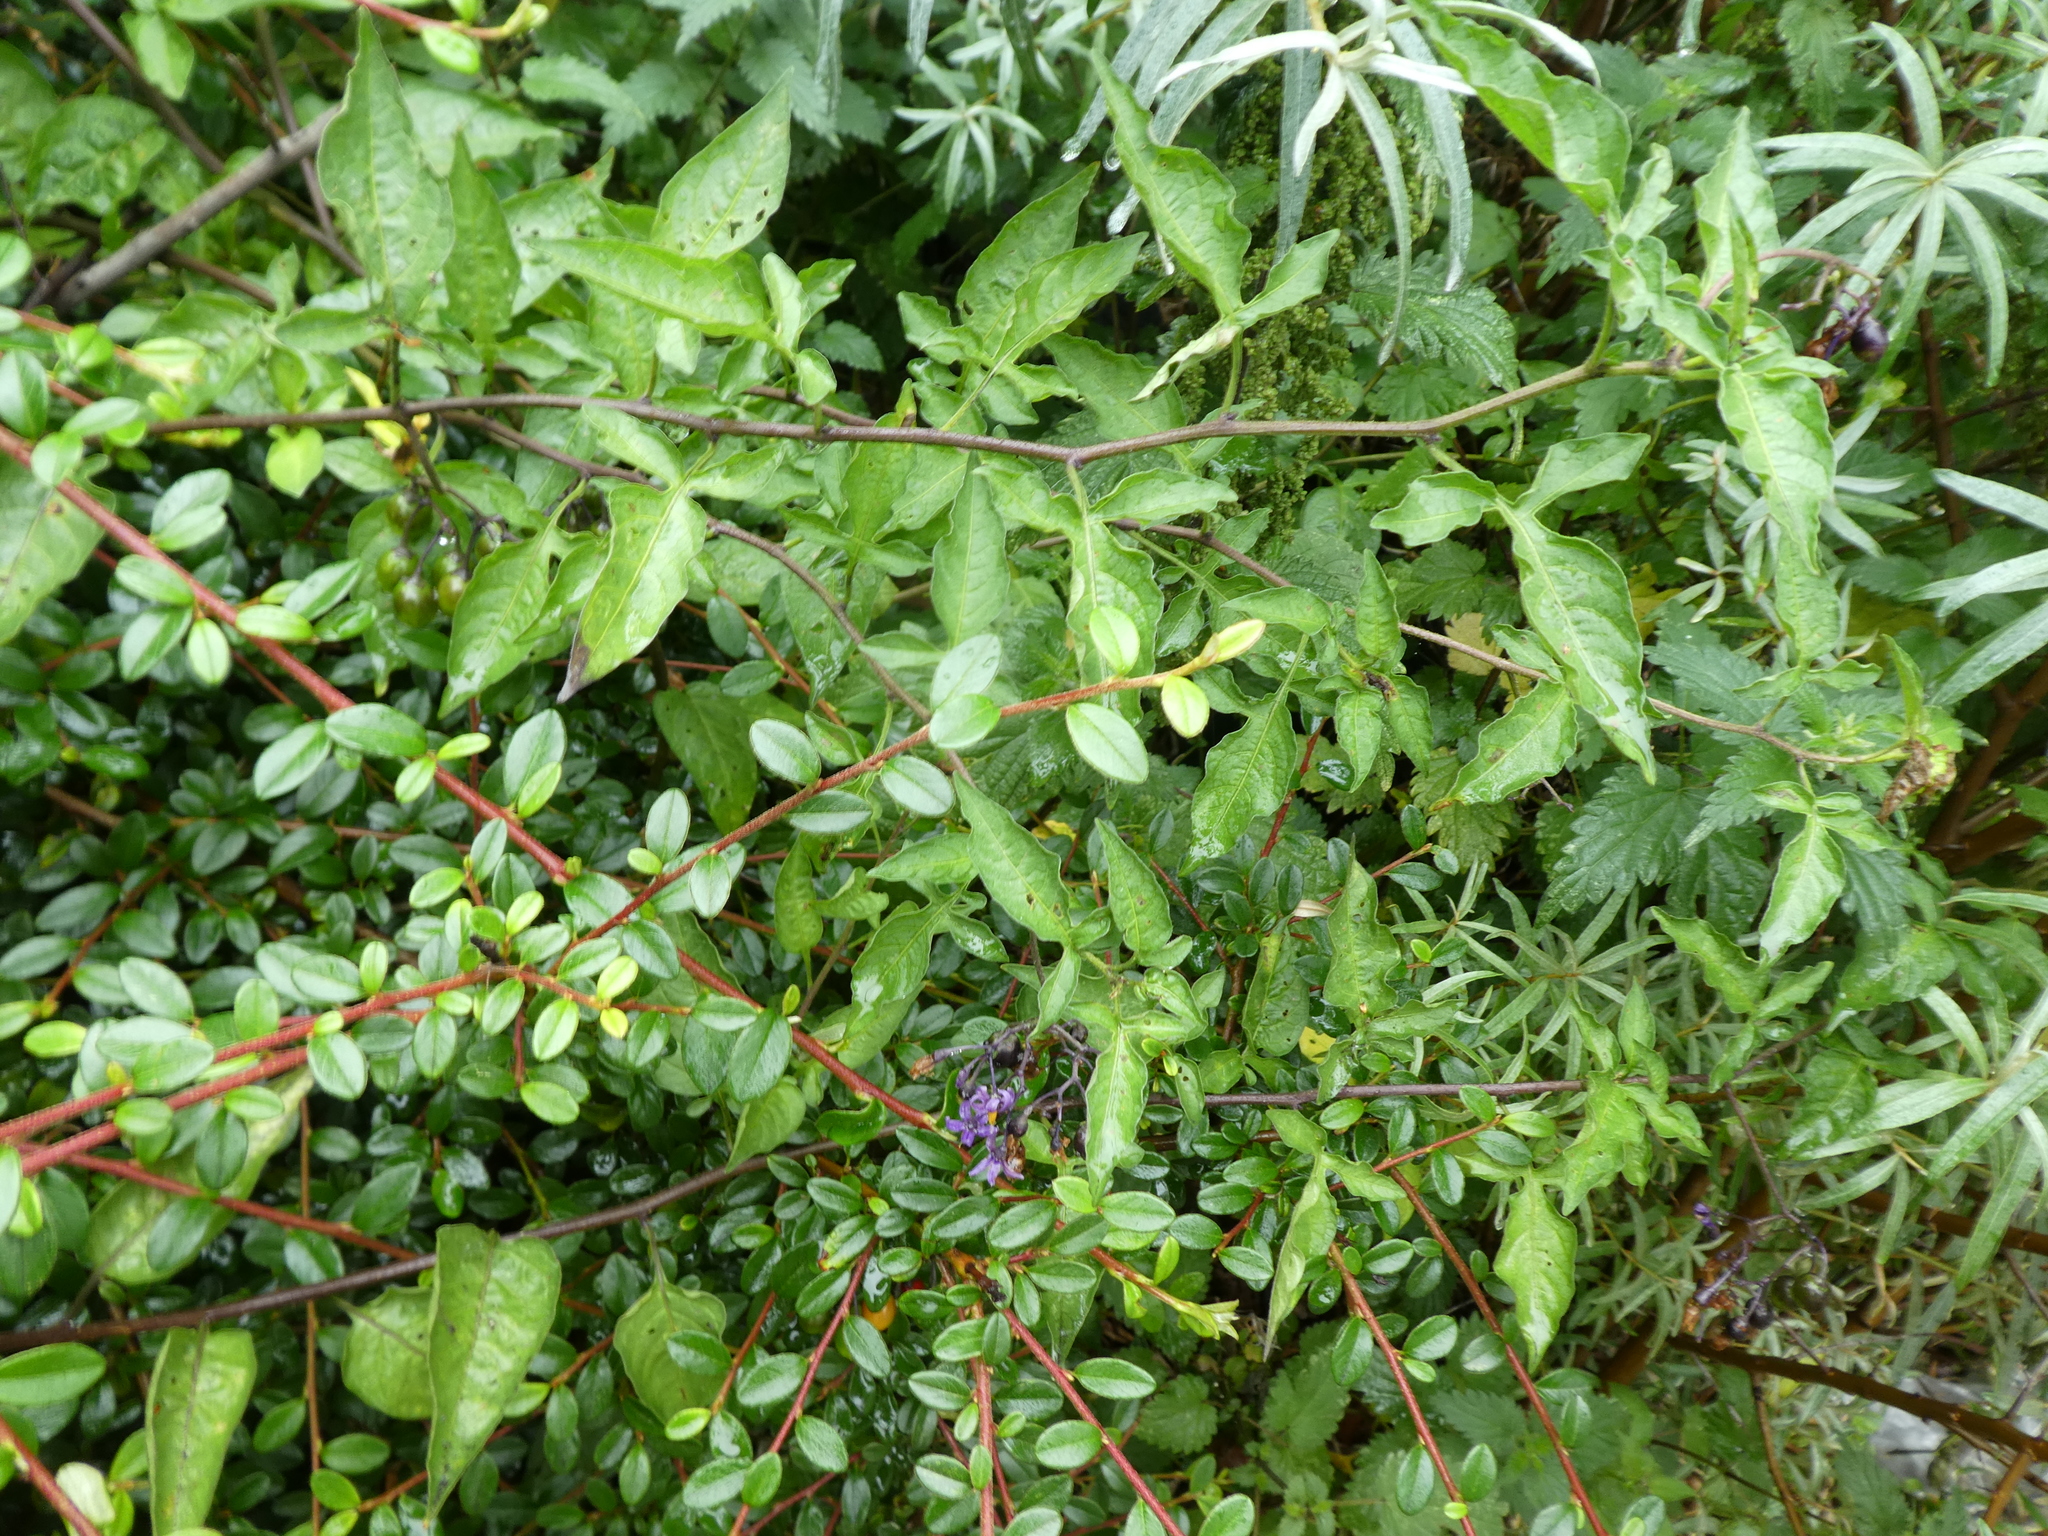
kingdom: Plantae
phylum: Tracheophyta
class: Magnoliopsida
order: Solanales
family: Solanaceae
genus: Solanum
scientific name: Solanum dulcamara
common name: Climbing nightshade
